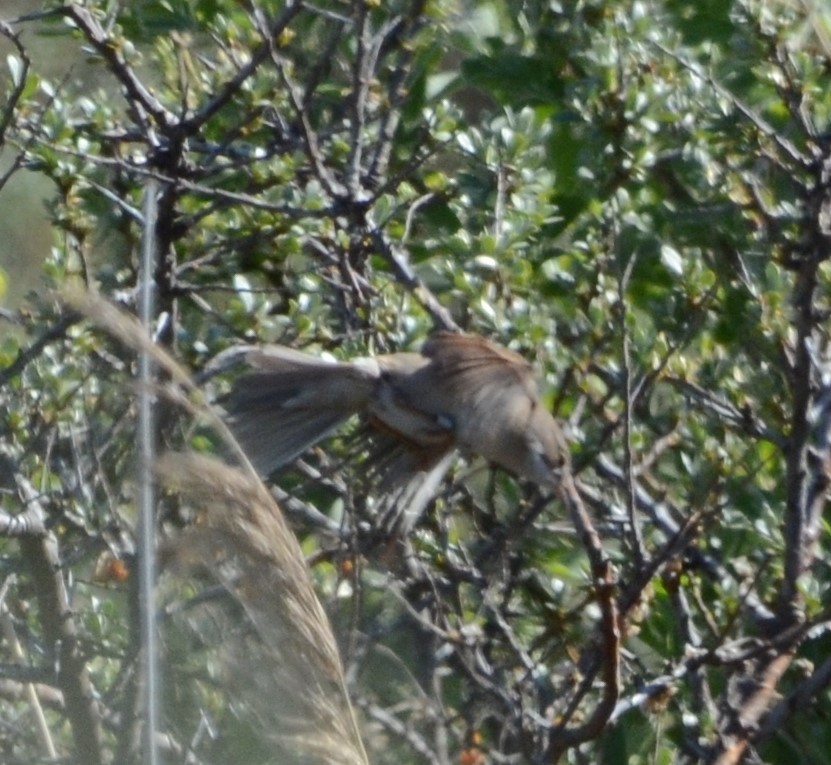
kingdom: Animalia
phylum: Chordata
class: Aves
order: Passeriformes
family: Sylviidae
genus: Sylvia
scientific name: Sylvia communis
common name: Common whitethroat
